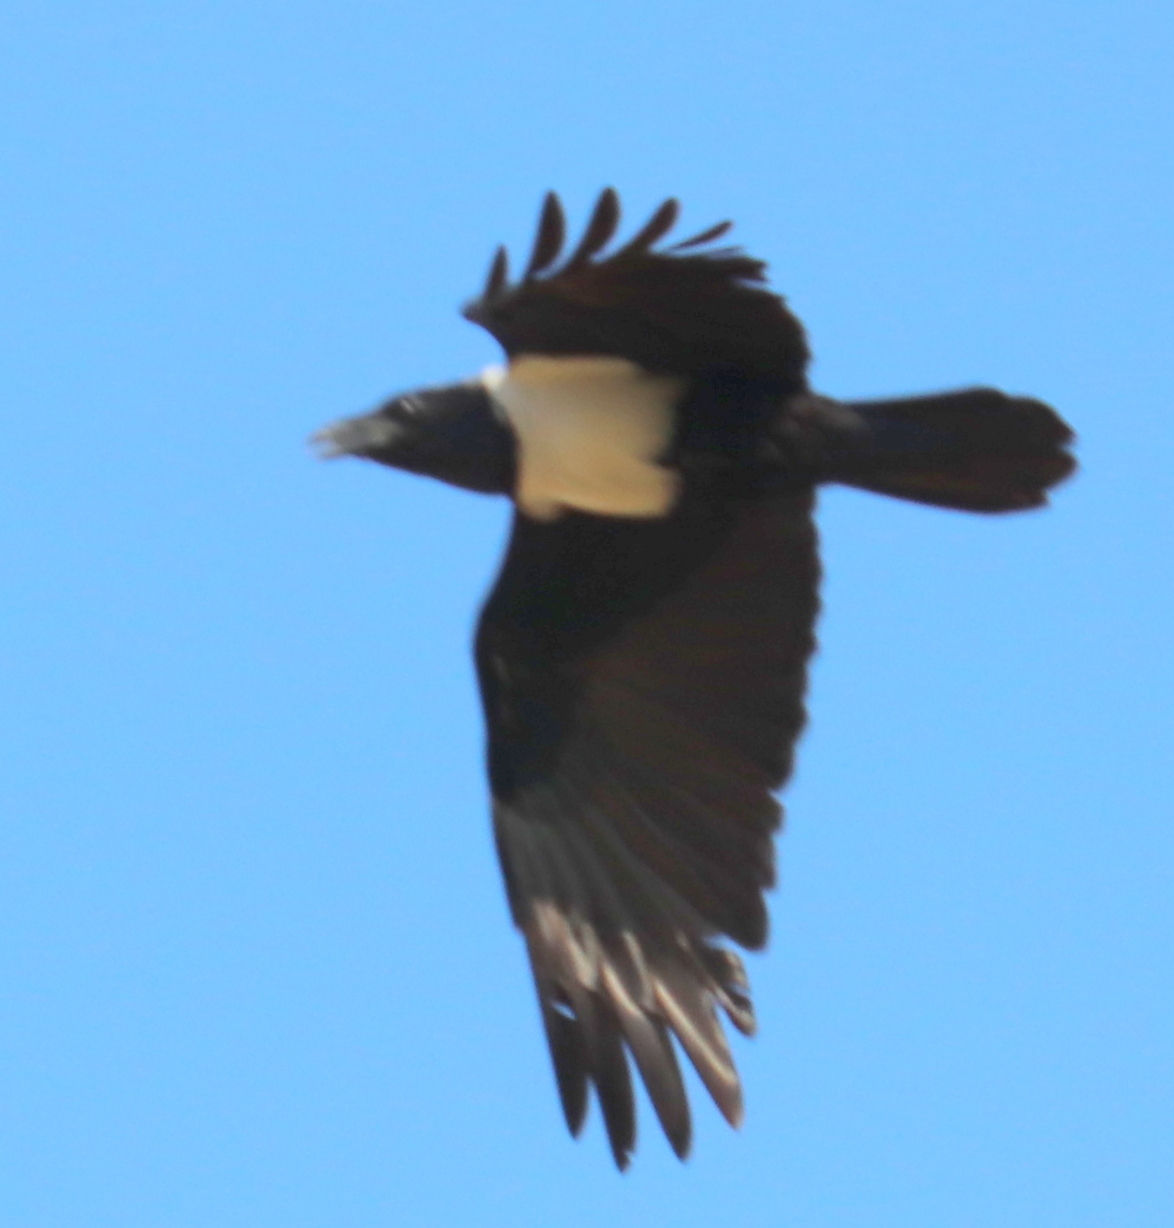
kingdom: Animalia
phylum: Chordata
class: Aves
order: Passeriformes
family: Corvidae
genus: Corvus
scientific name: Corvus albus
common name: Pied crow
